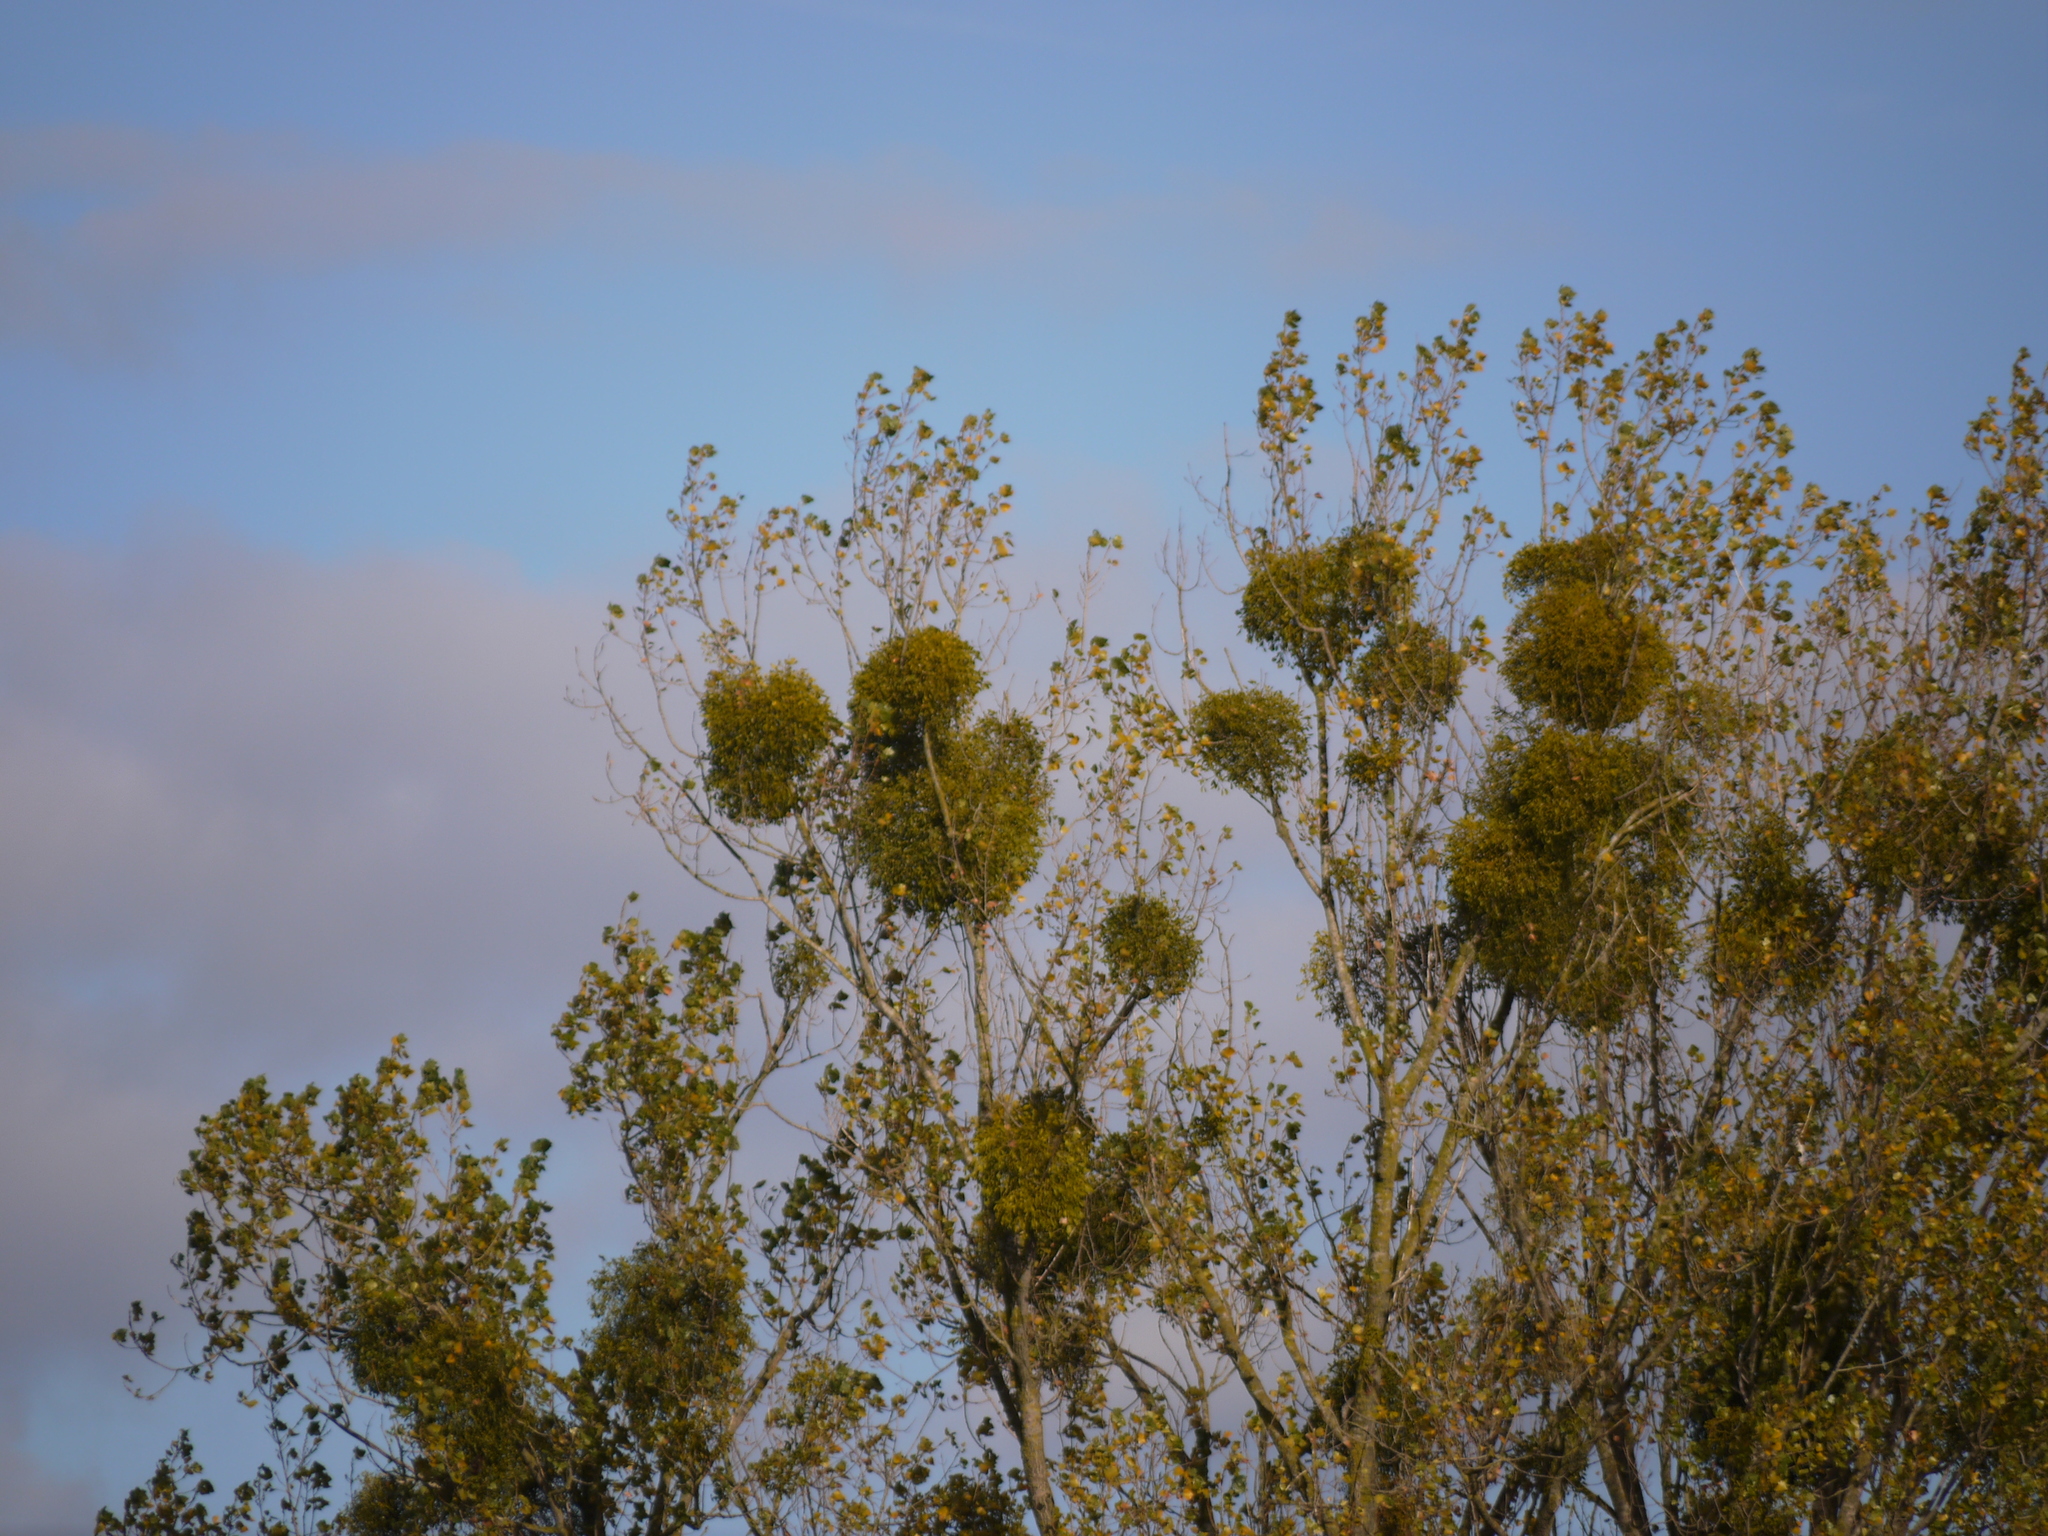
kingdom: Plantae
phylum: Tracheophyta
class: Magnoliopsida
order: Santalales
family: Viscaceae
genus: Viscum
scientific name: Viscum album
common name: Mistletoe
